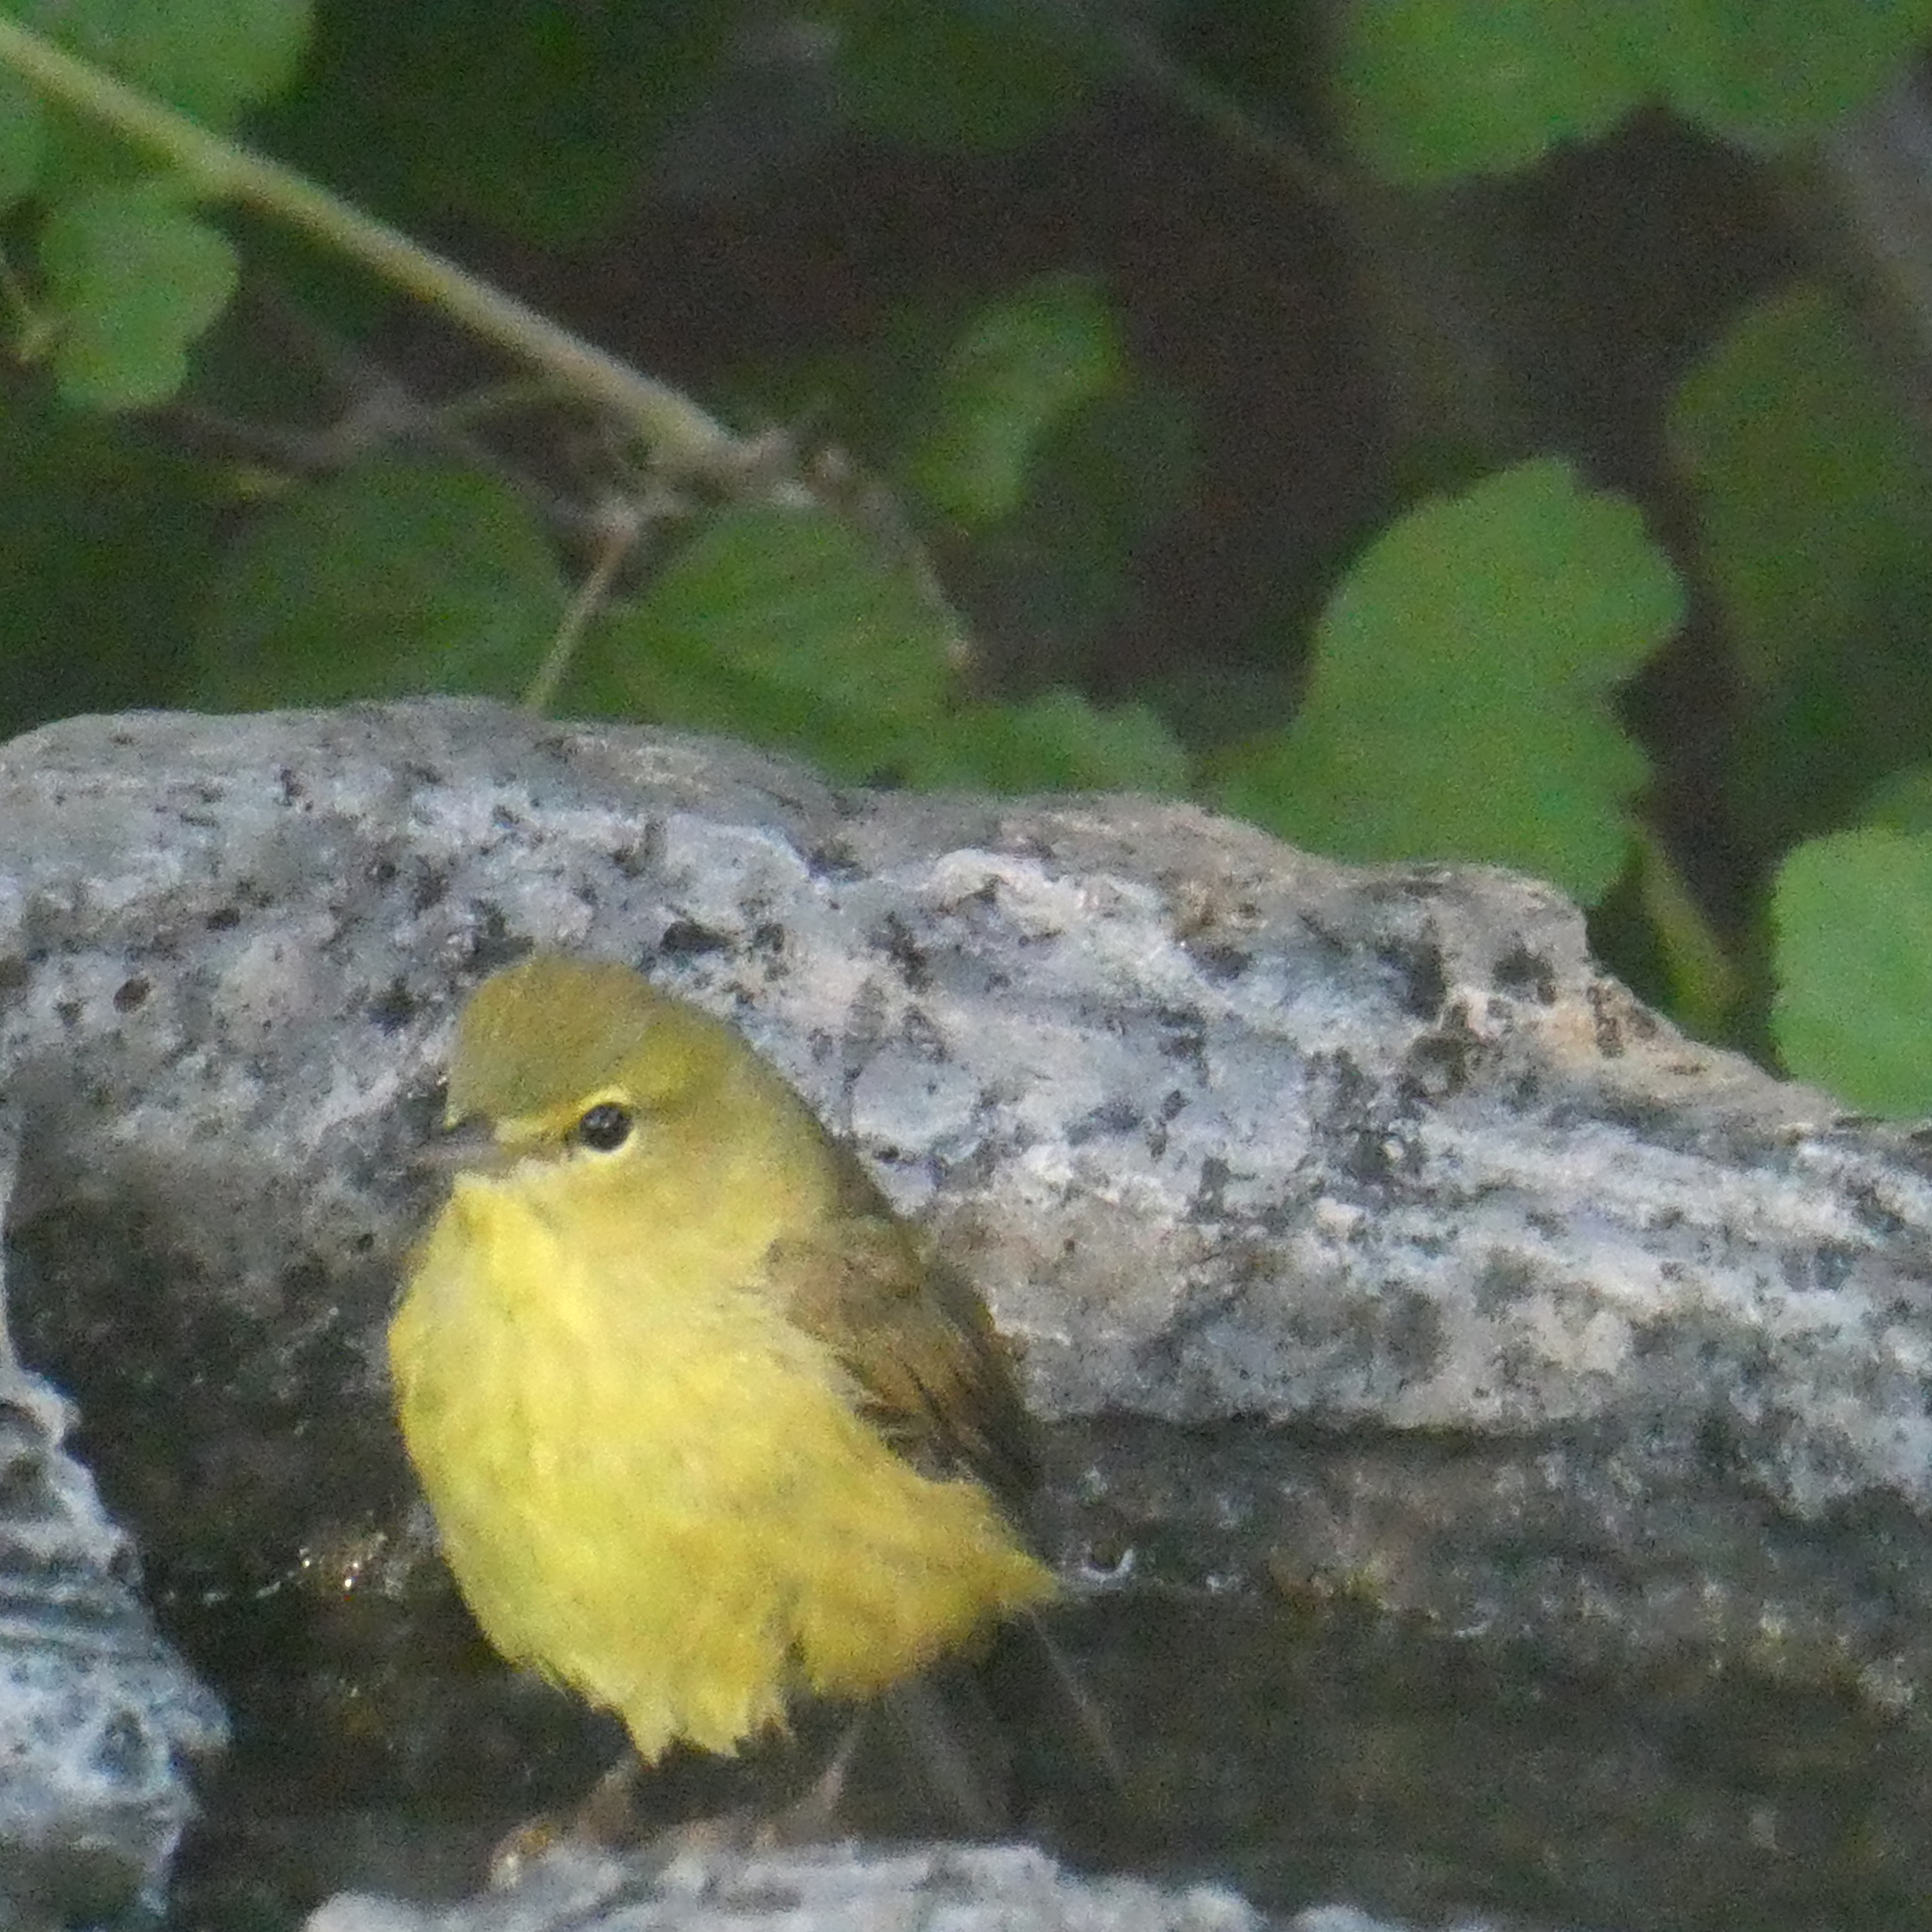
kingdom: Animalia
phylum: Chordata
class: Aves
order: Passeriformes
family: Parulidae
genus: Leiothlypis
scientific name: Leiothlypis celata
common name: Orange-crowned warbler
